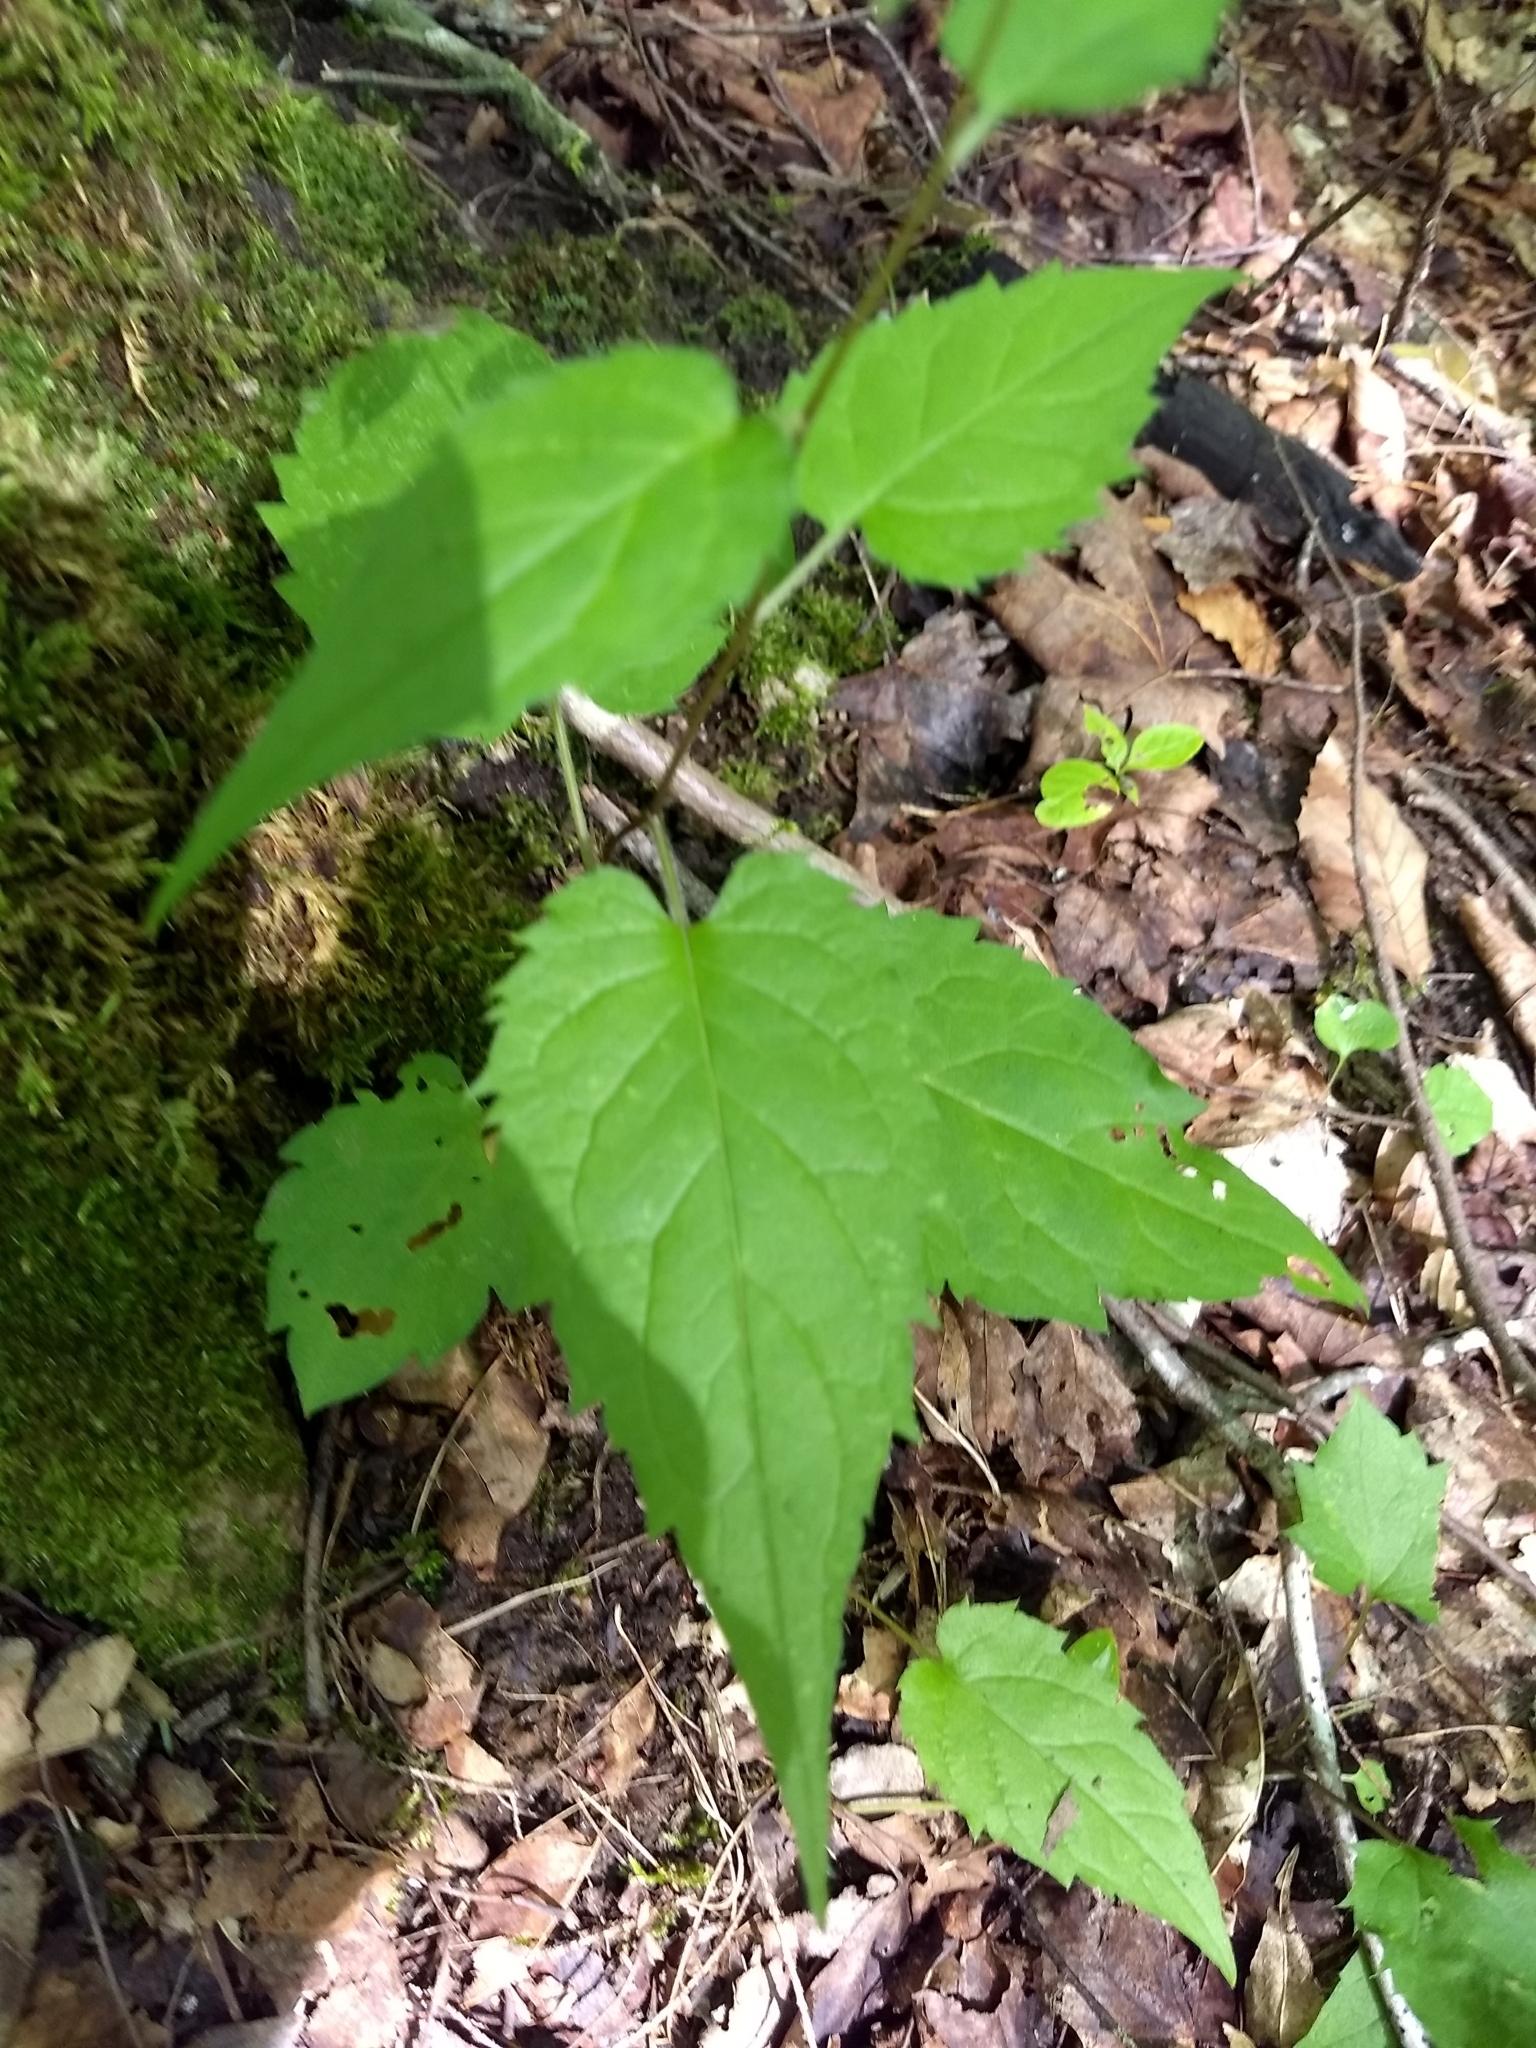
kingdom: Plantae
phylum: Tracheophyta
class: Magnoliopsida
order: Asterales
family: Asteraceae
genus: Eurybia
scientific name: Eurybia divaricata
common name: White wood aster
